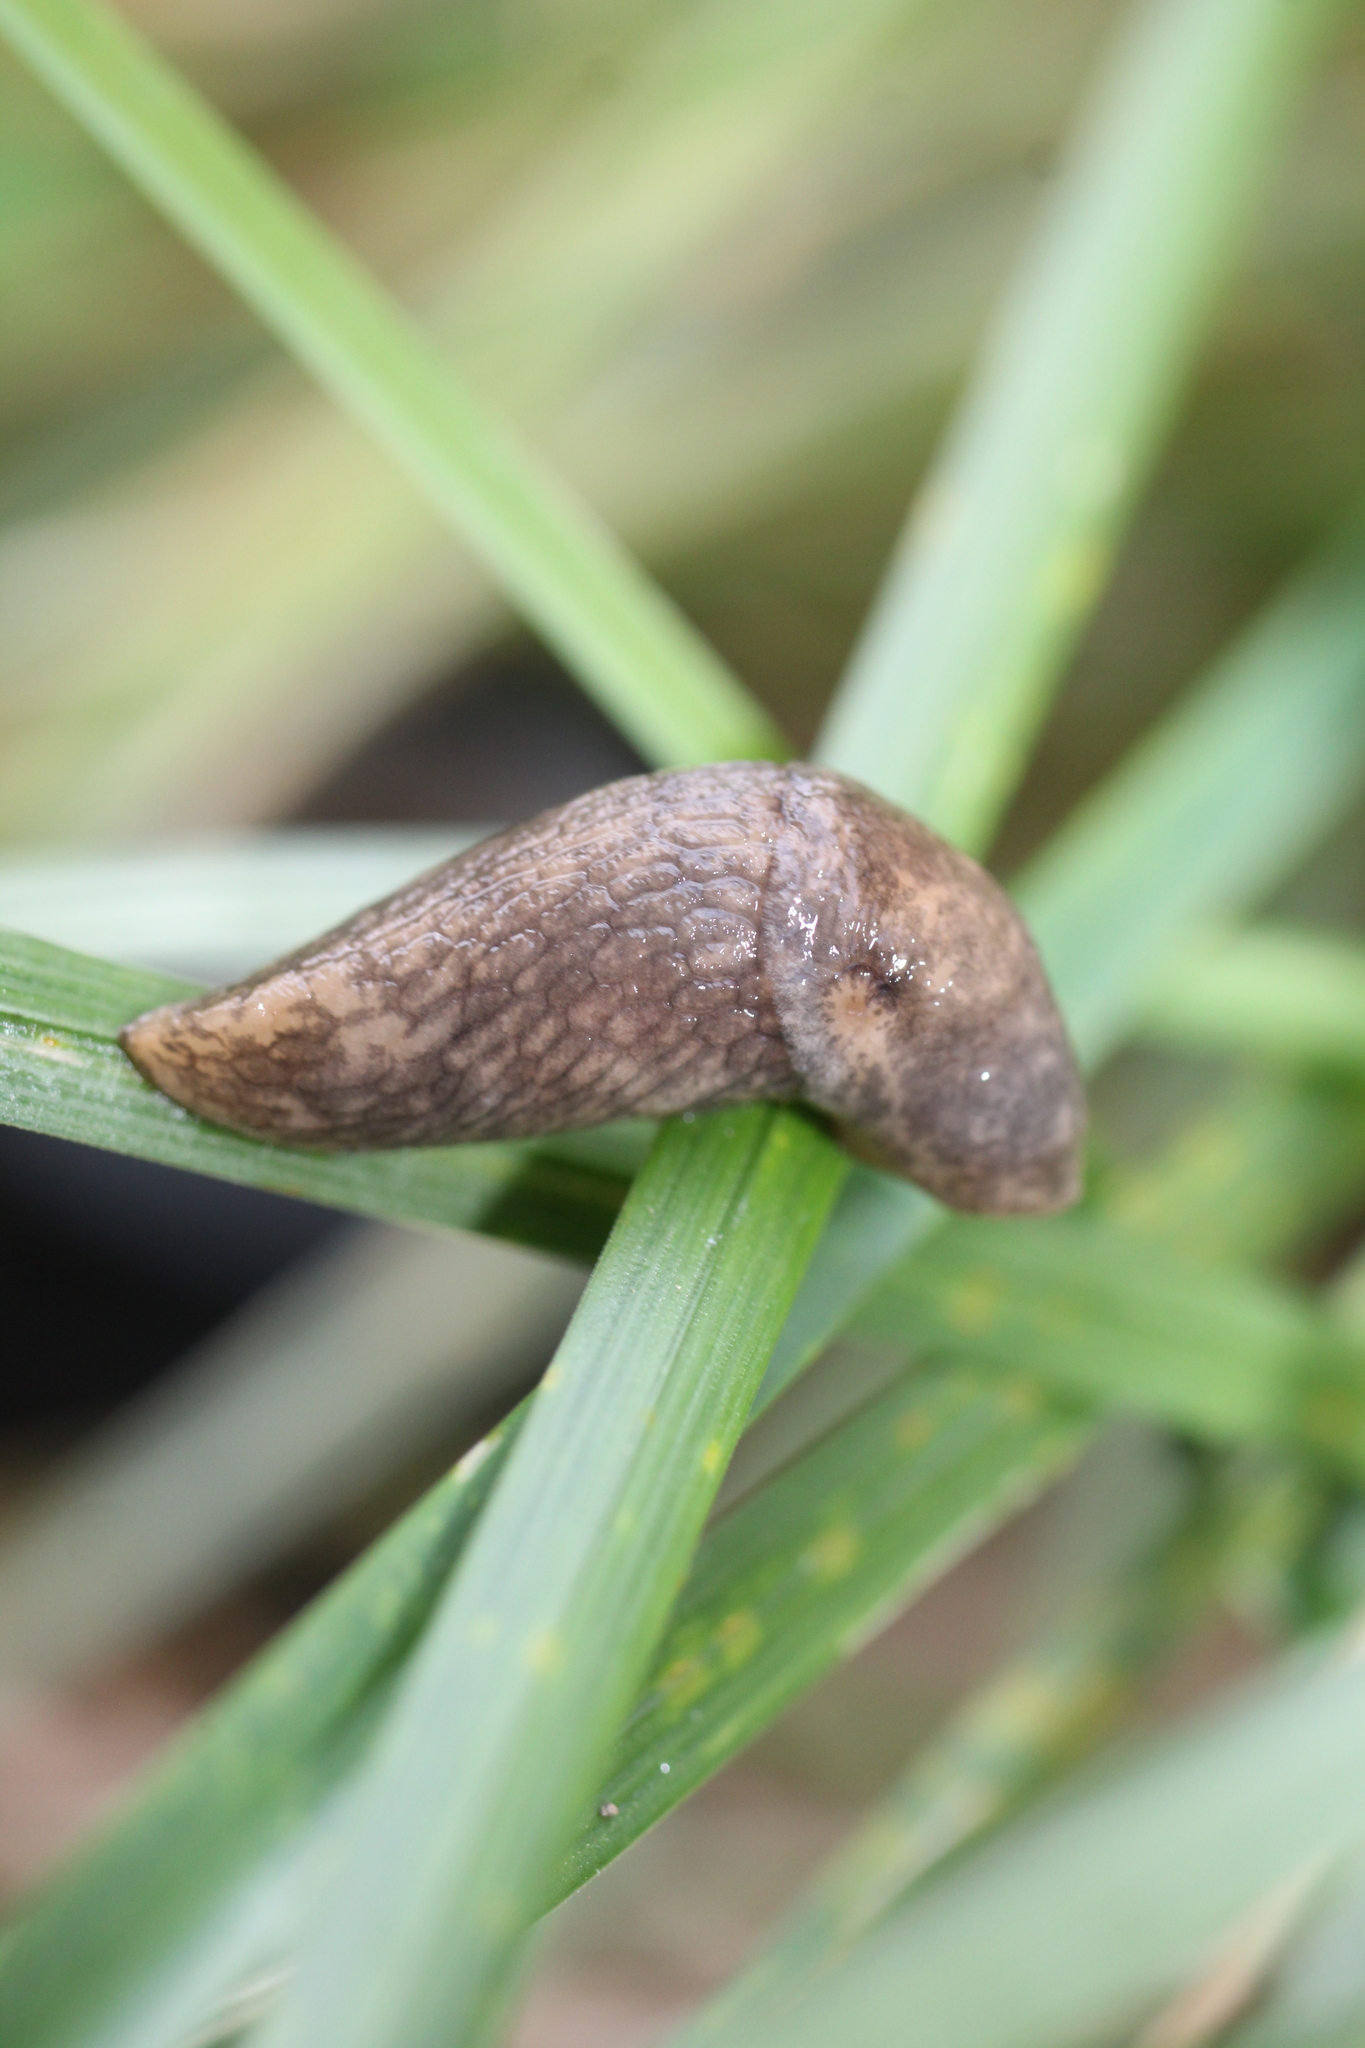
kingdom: Animalia
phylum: Mollusca
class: Gastropoda
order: Stylommatophora
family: Agriolimacidae
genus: Deroceras
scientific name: Deroceras reticulatum
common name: Gray field slug
